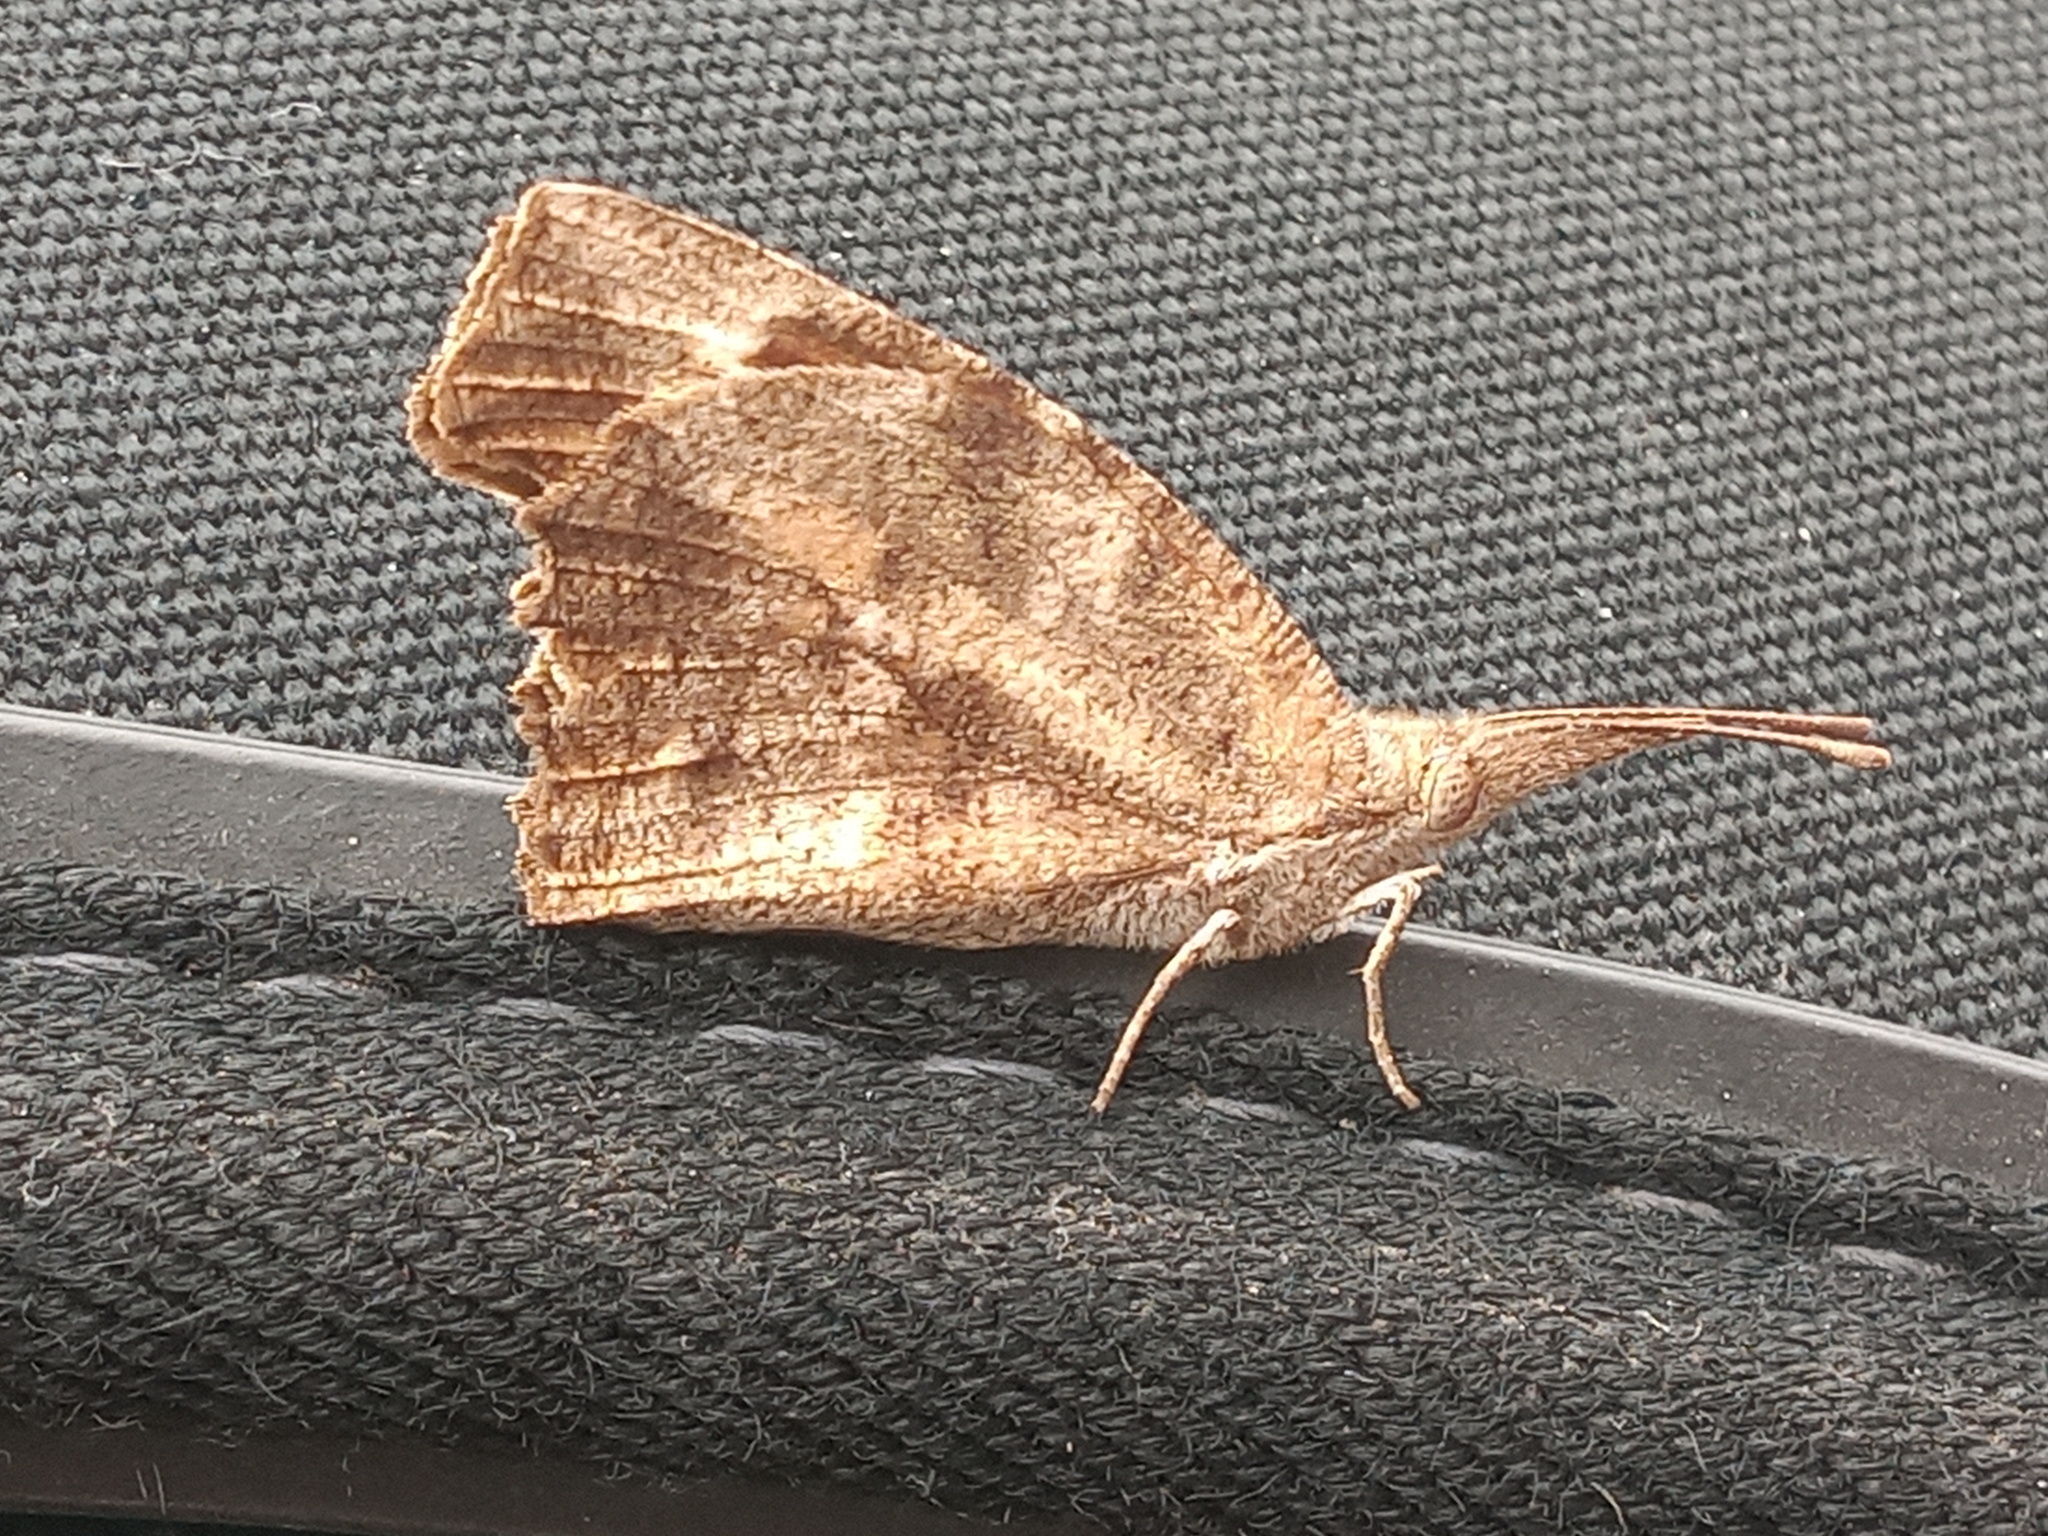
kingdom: Animalia
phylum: Arthropoda
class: Insecta
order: Lepidoptera
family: Nymphalidae
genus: Libytheana
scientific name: Libytheana carinenta
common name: American snout
